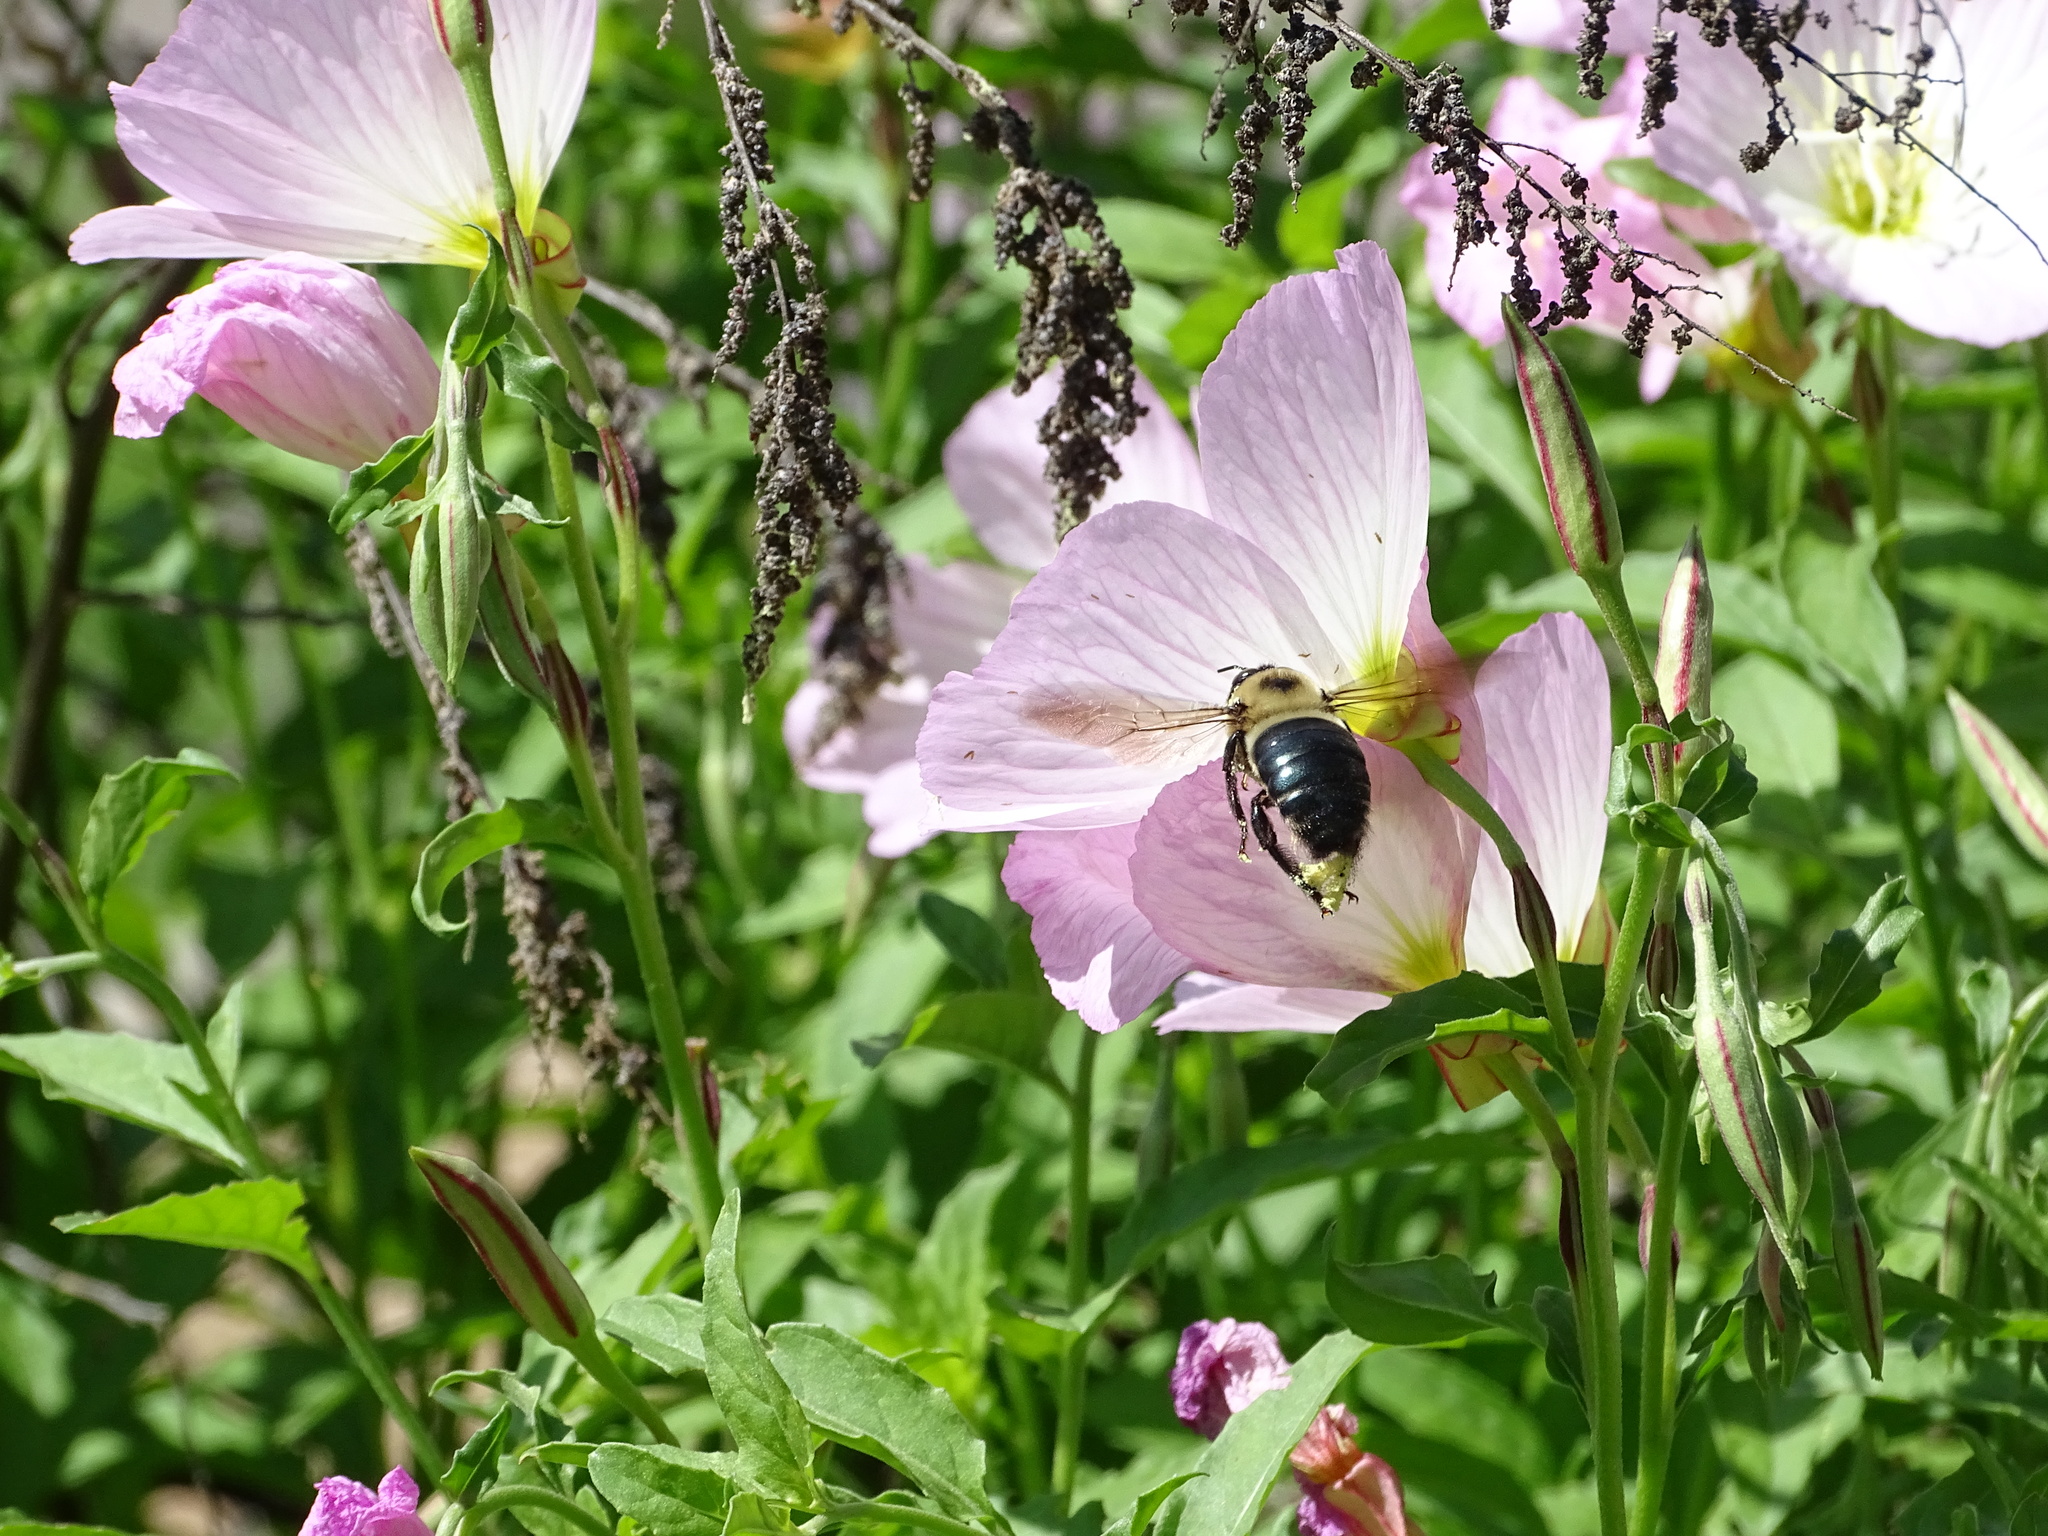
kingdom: Animalia
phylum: Arthropoda
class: Insecta
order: Hymenoptera
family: Apidae
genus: Xylocopa
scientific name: Xylocopa virginica
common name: Carpenter bee
